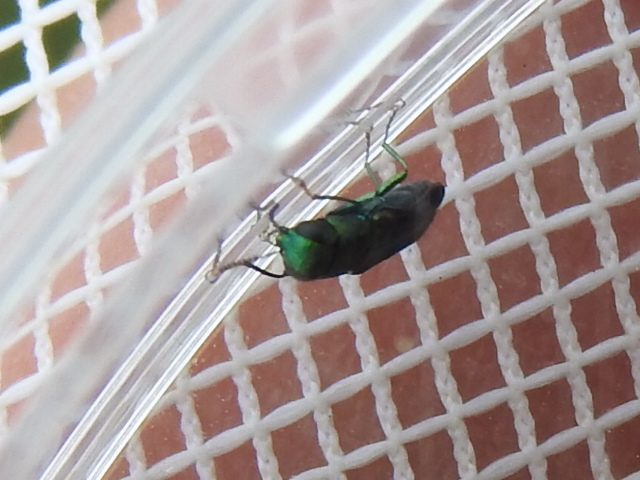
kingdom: Animalia
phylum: Arthropoda
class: Insecta
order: Coleoptera
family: Buprestidae
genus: Agrilaxia
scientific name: Agrilaxia flavimana
